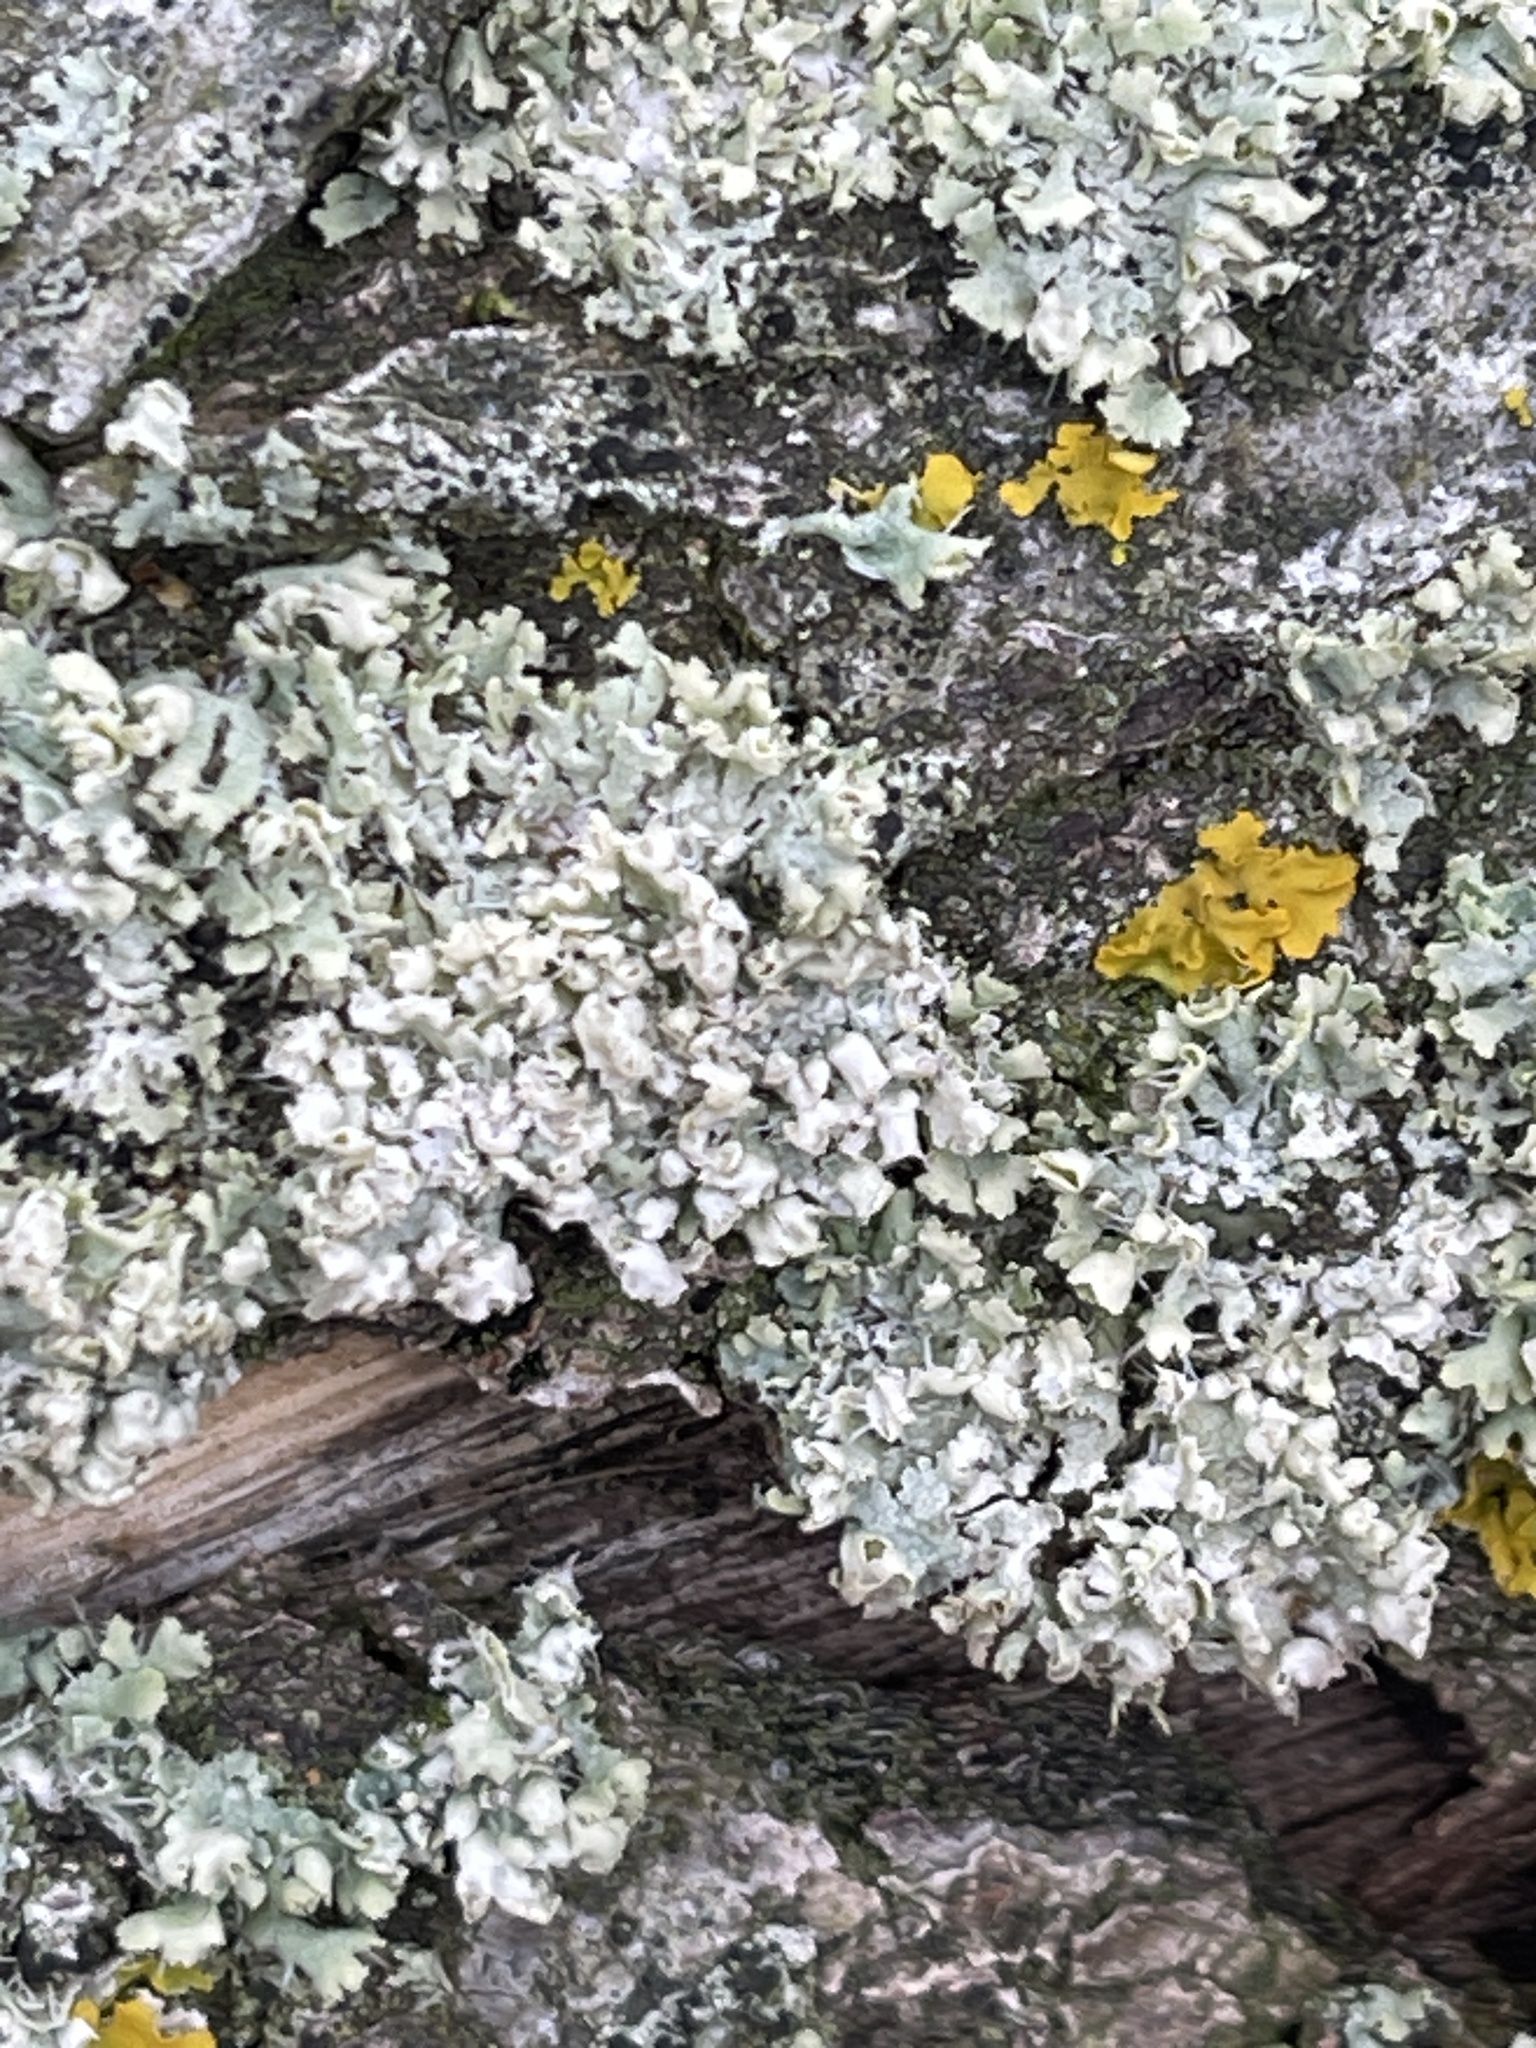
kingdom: Fungi
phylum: Ascomycota
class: Lecanoromycetes
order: Caliciales
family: Physciaceae
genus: Physcia
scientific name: Physcia adscendens
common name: Hooded rosette lichen
